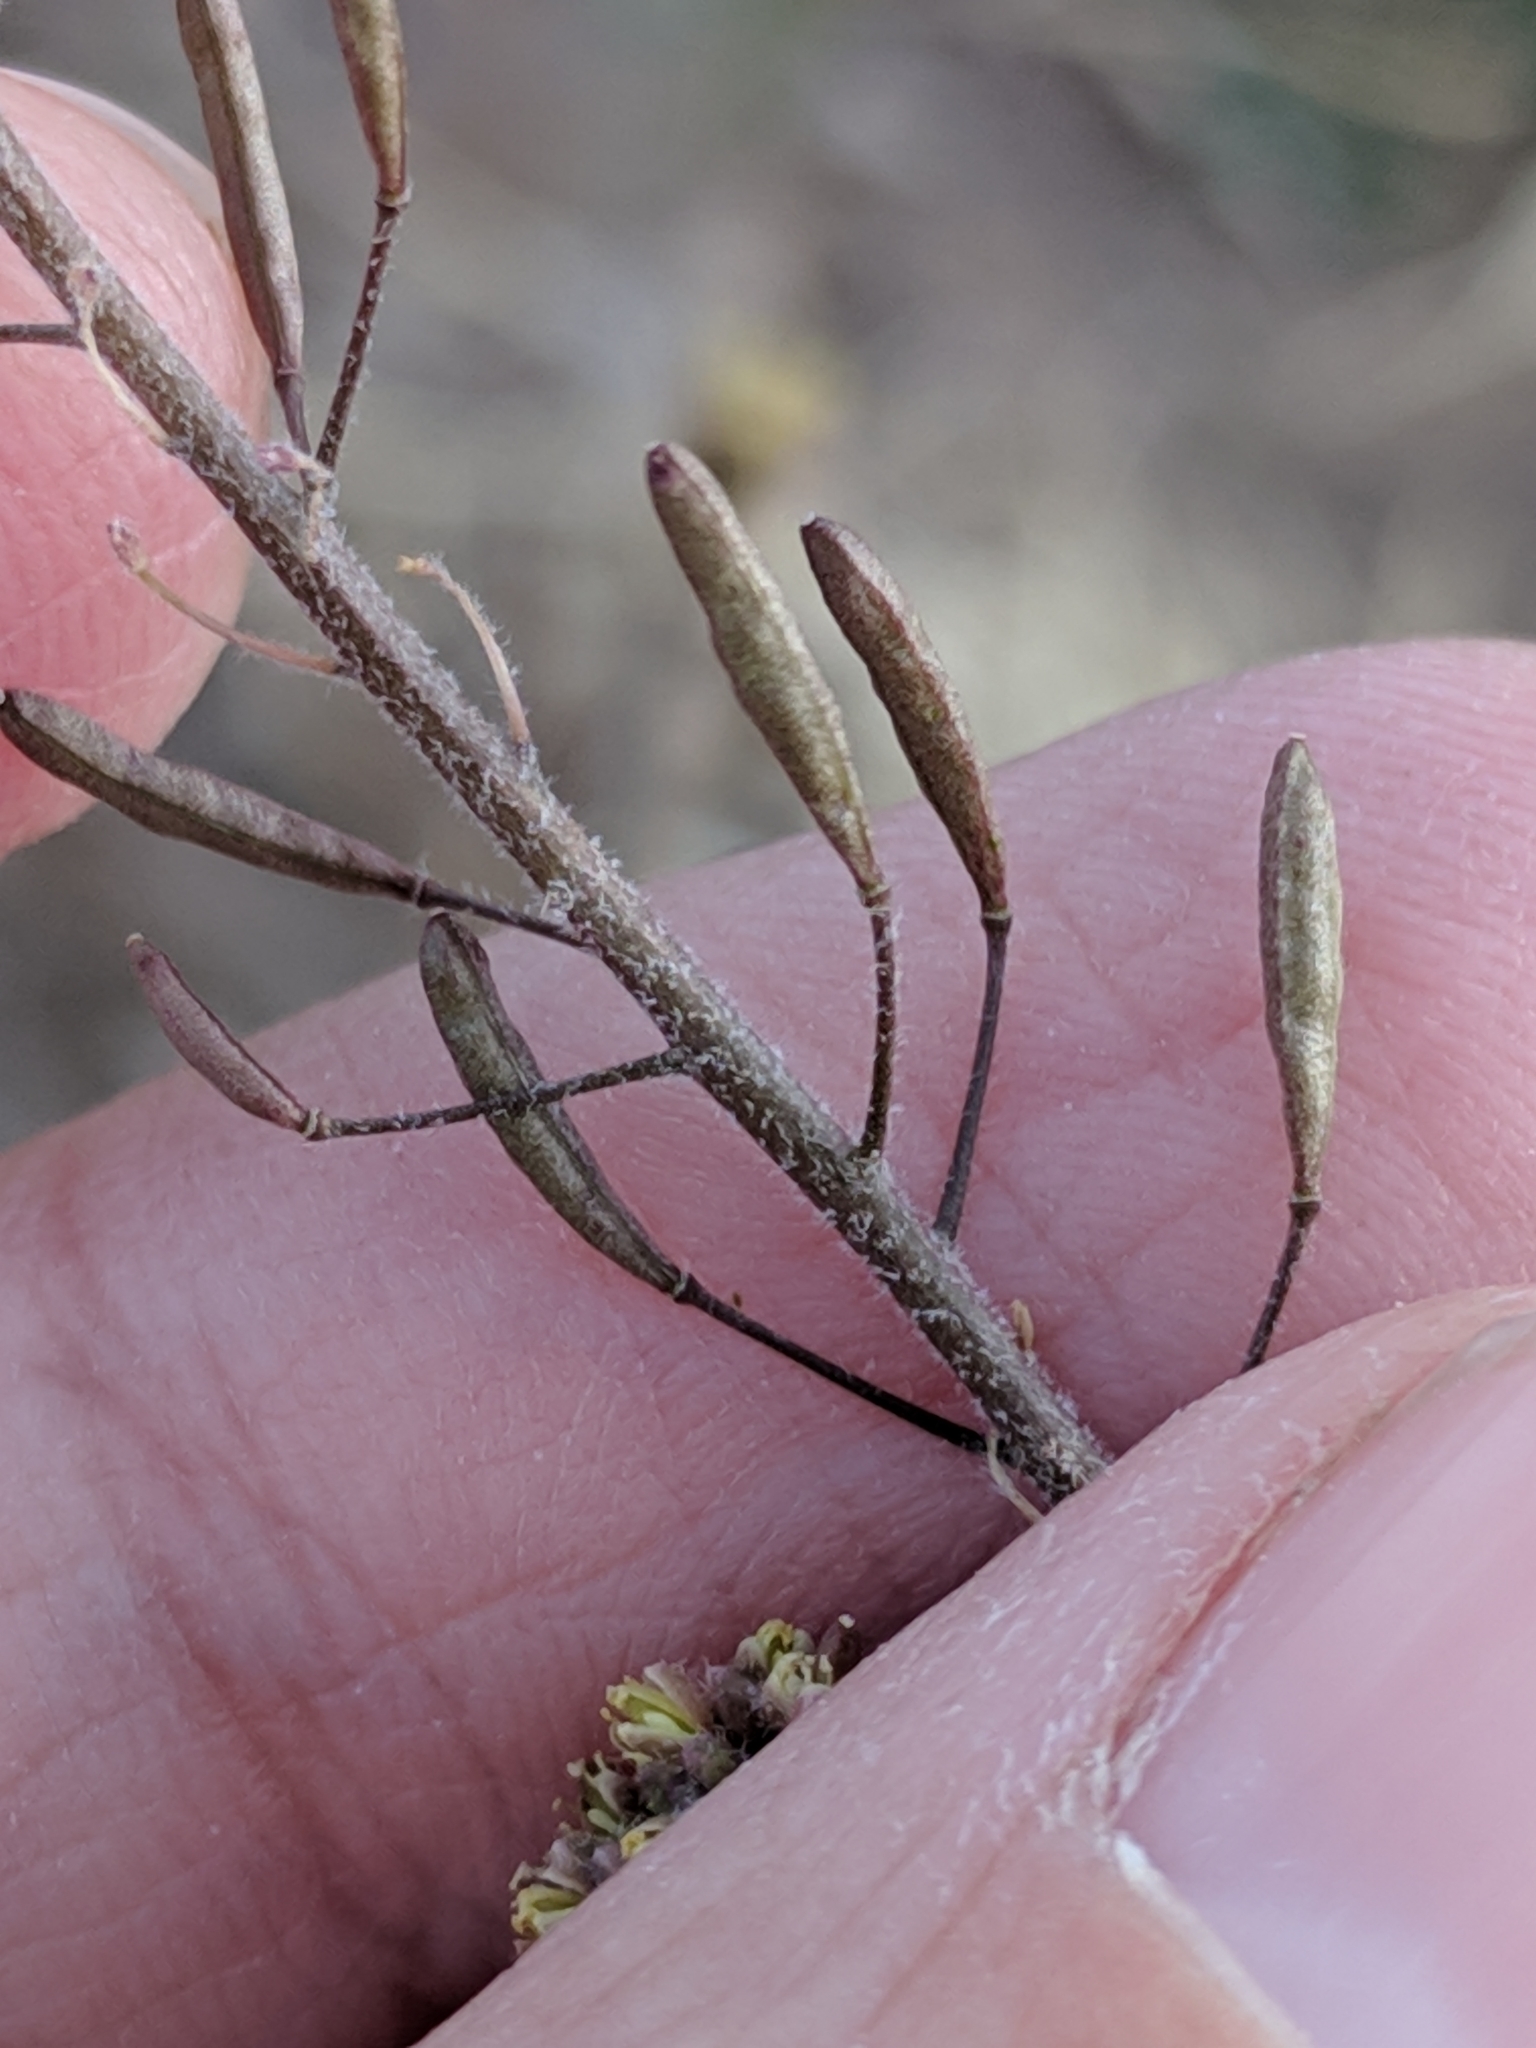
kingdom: Plantae
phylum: Tracheophyta
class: Magnoliopsida
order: Brassicales
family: Brassicaceae
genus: Descurainia
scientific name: Descurainia pinnata
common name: Western tansy mustard
